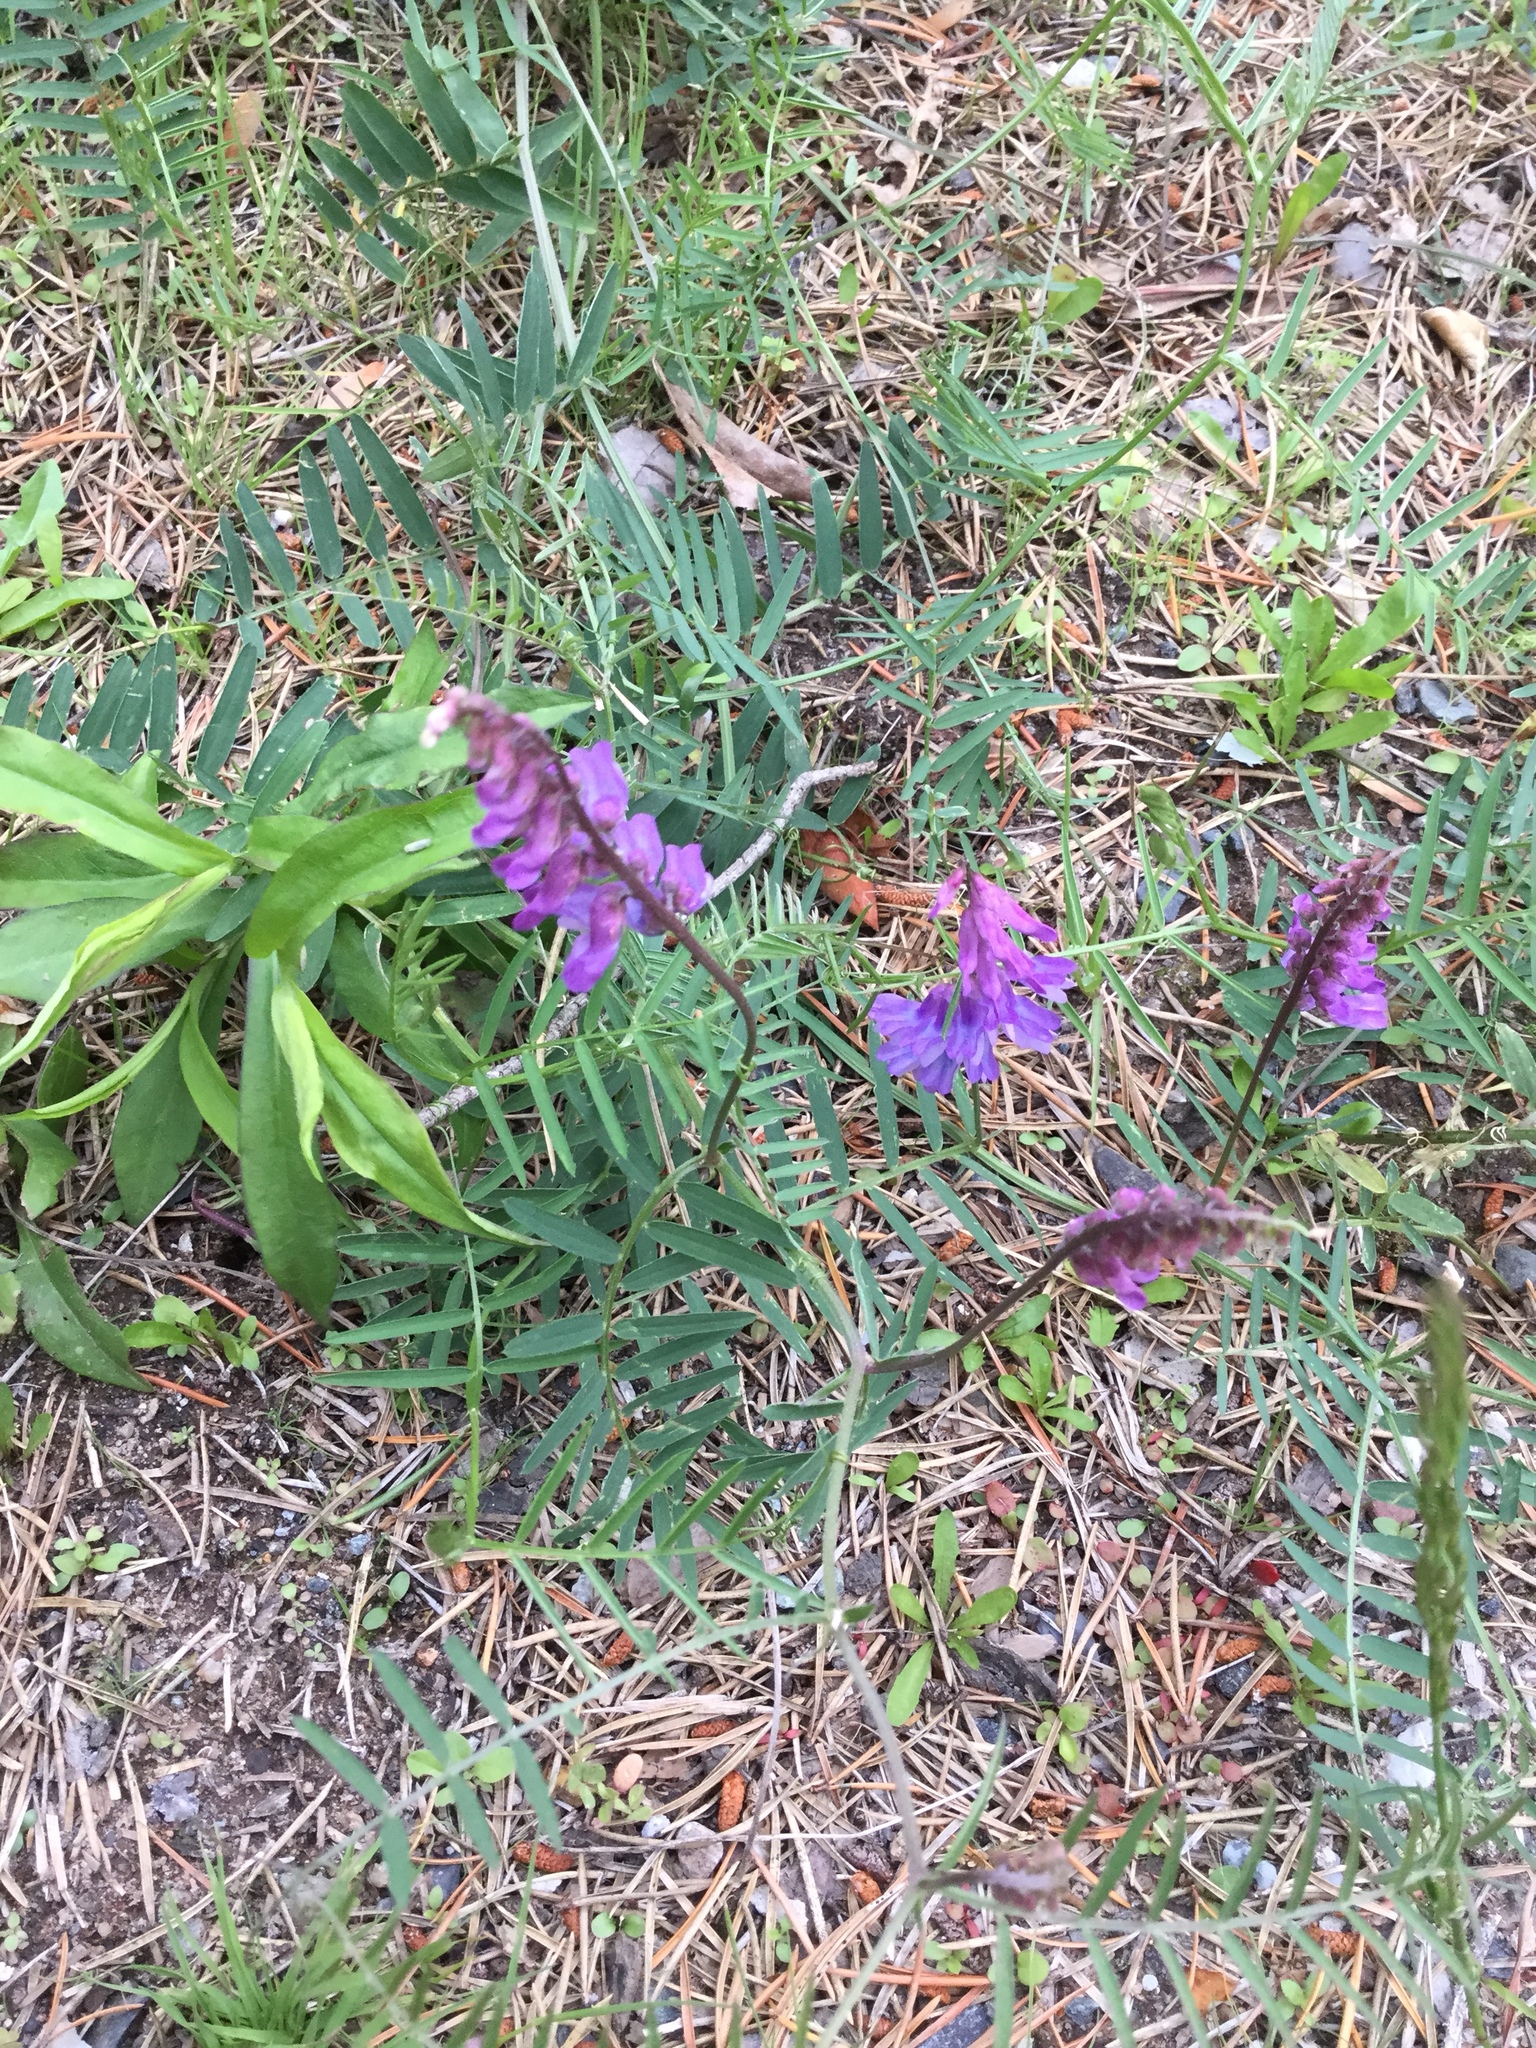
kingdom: Plantae
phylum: Tracheophyta
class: Magnoliopsida
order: Fabales
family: Fabaceae
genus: Vicia
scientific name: Vicia cracca
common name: Bird vetch
